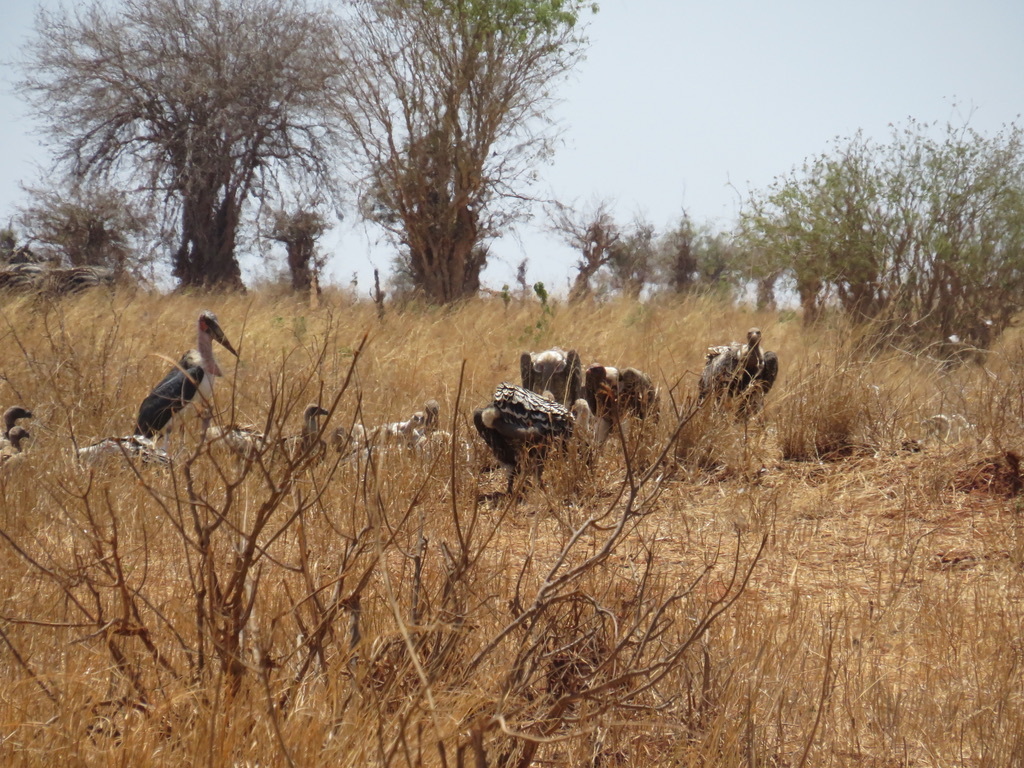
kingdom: Animalia
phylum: Chordata
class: Aves
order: Ciconiiformes
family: Ciconiidae
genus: Leptoptilos
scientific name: Leptoptilos crumenifer
